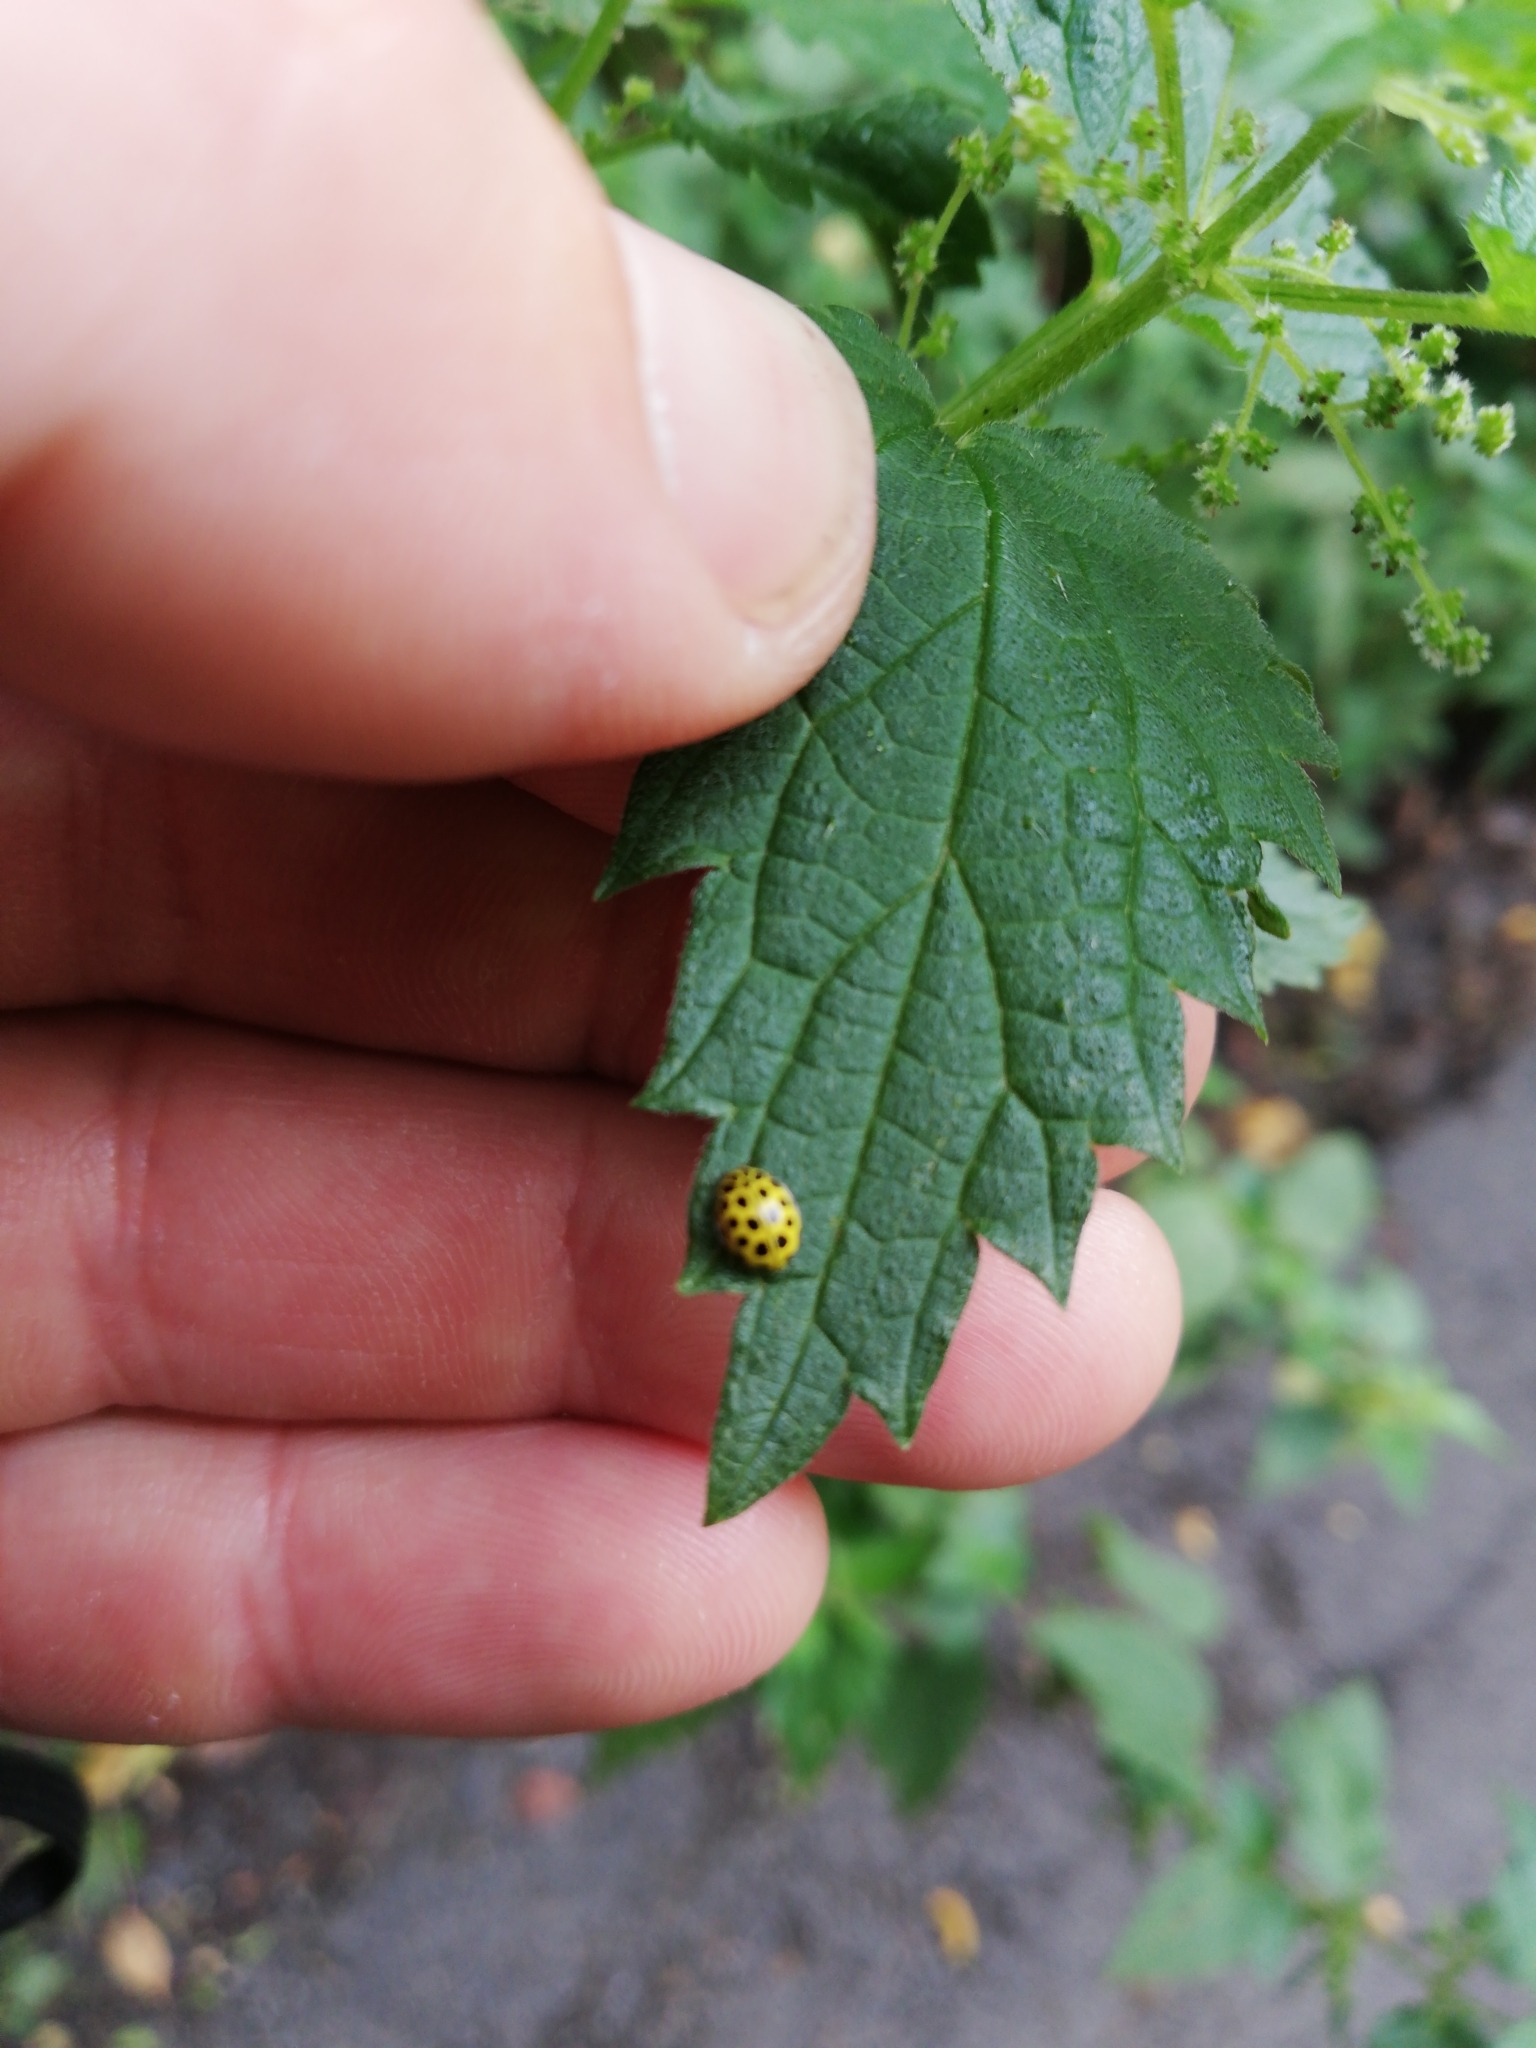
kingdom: Animalia
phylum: Arthropoda
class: Insecta
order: Coleoptera
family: Coccinellidae
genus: Psyllobora
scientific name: Psyllobora vigintiduopunctata
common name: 22-spot ladybird
